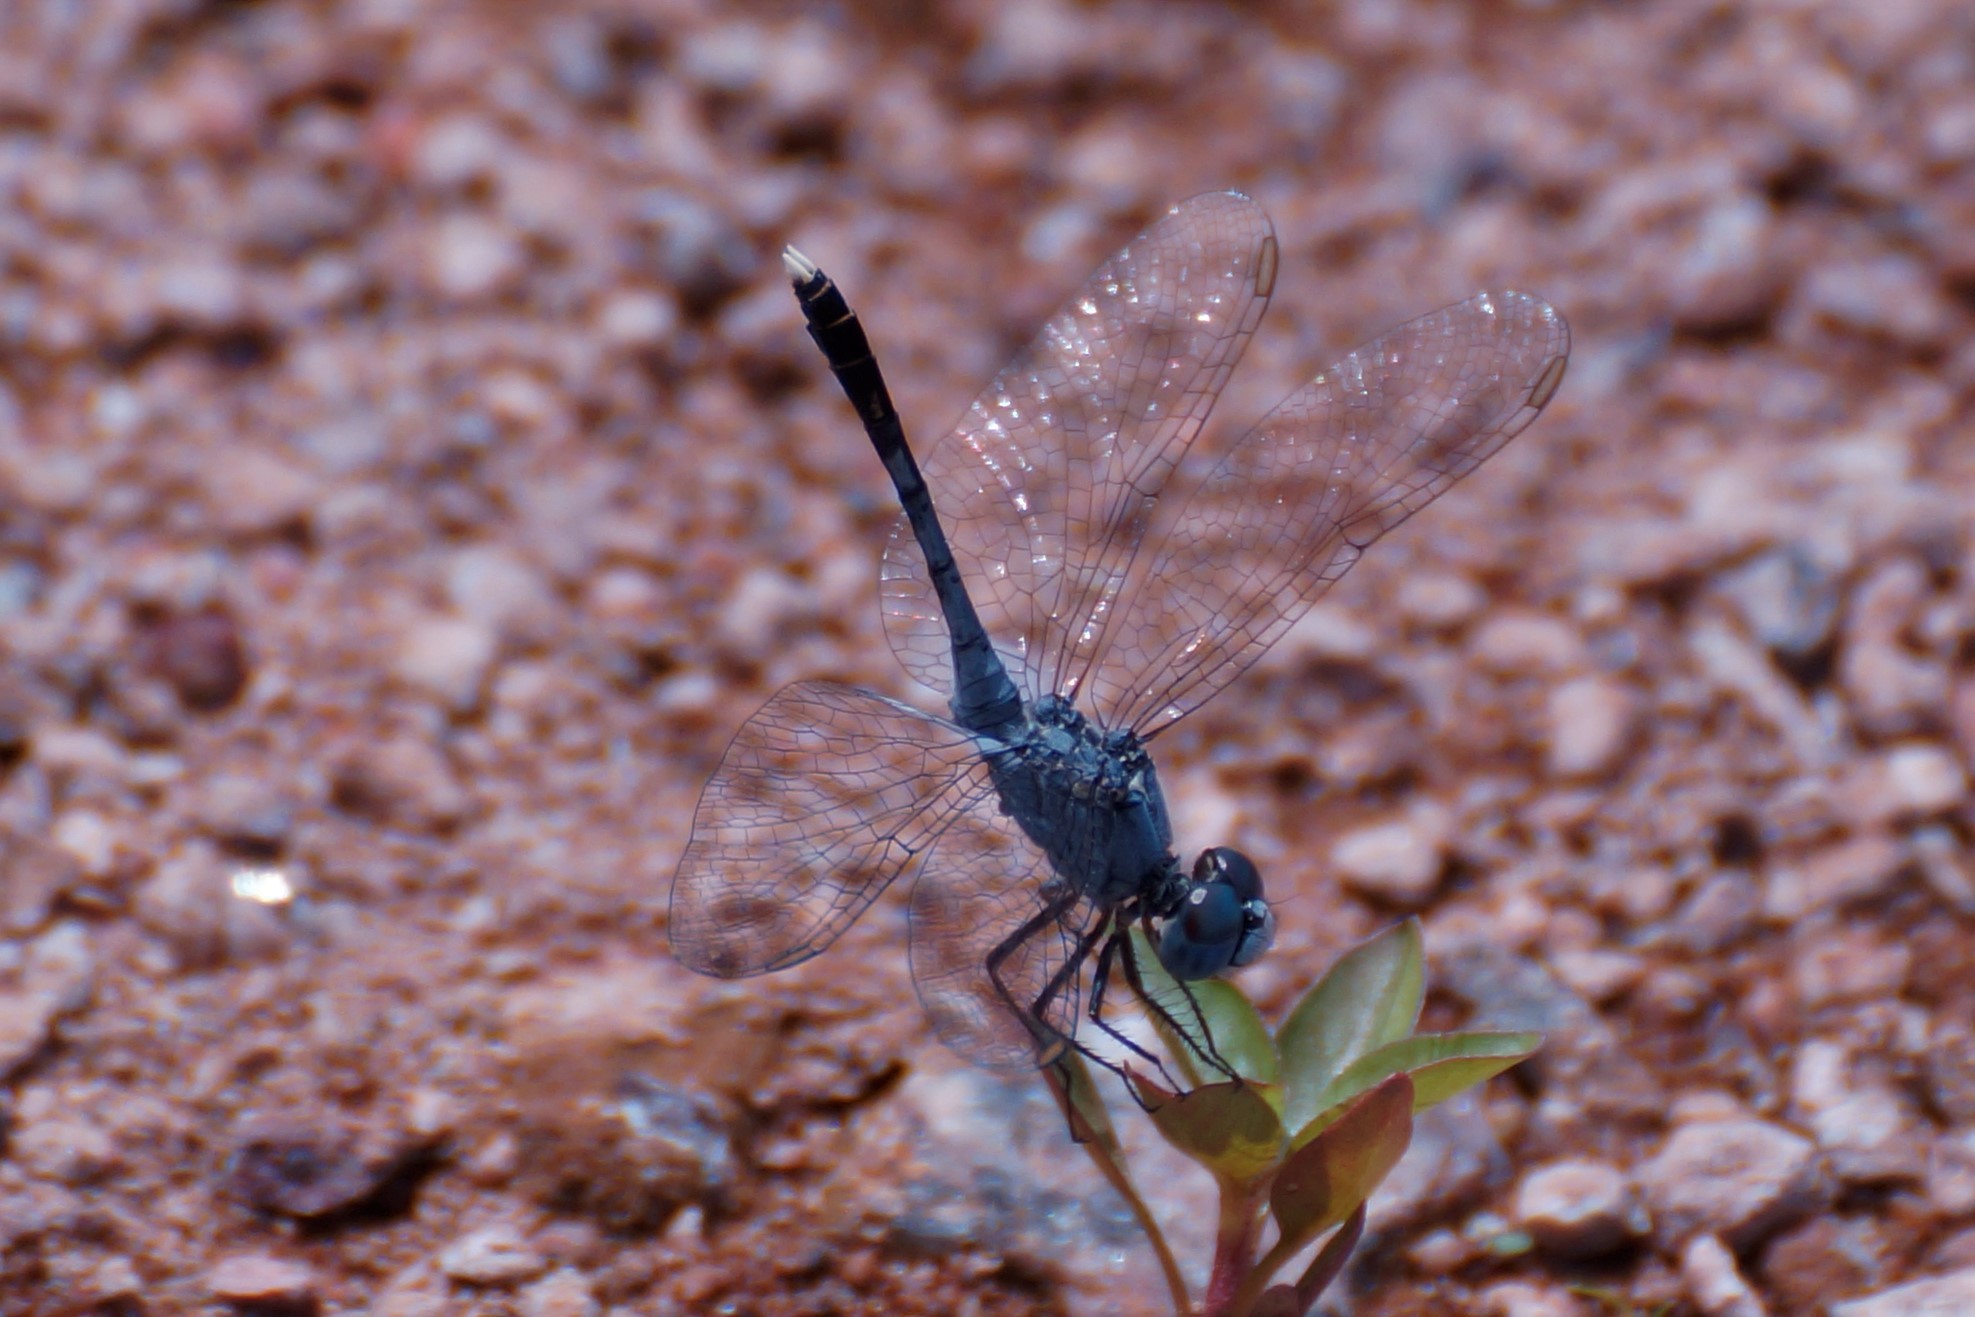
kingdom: Animalia
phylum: Arthropoda
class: Insecta
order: Odonata
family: Libellulidae
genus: Diplacodes
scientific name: Diplacodes trivialis
